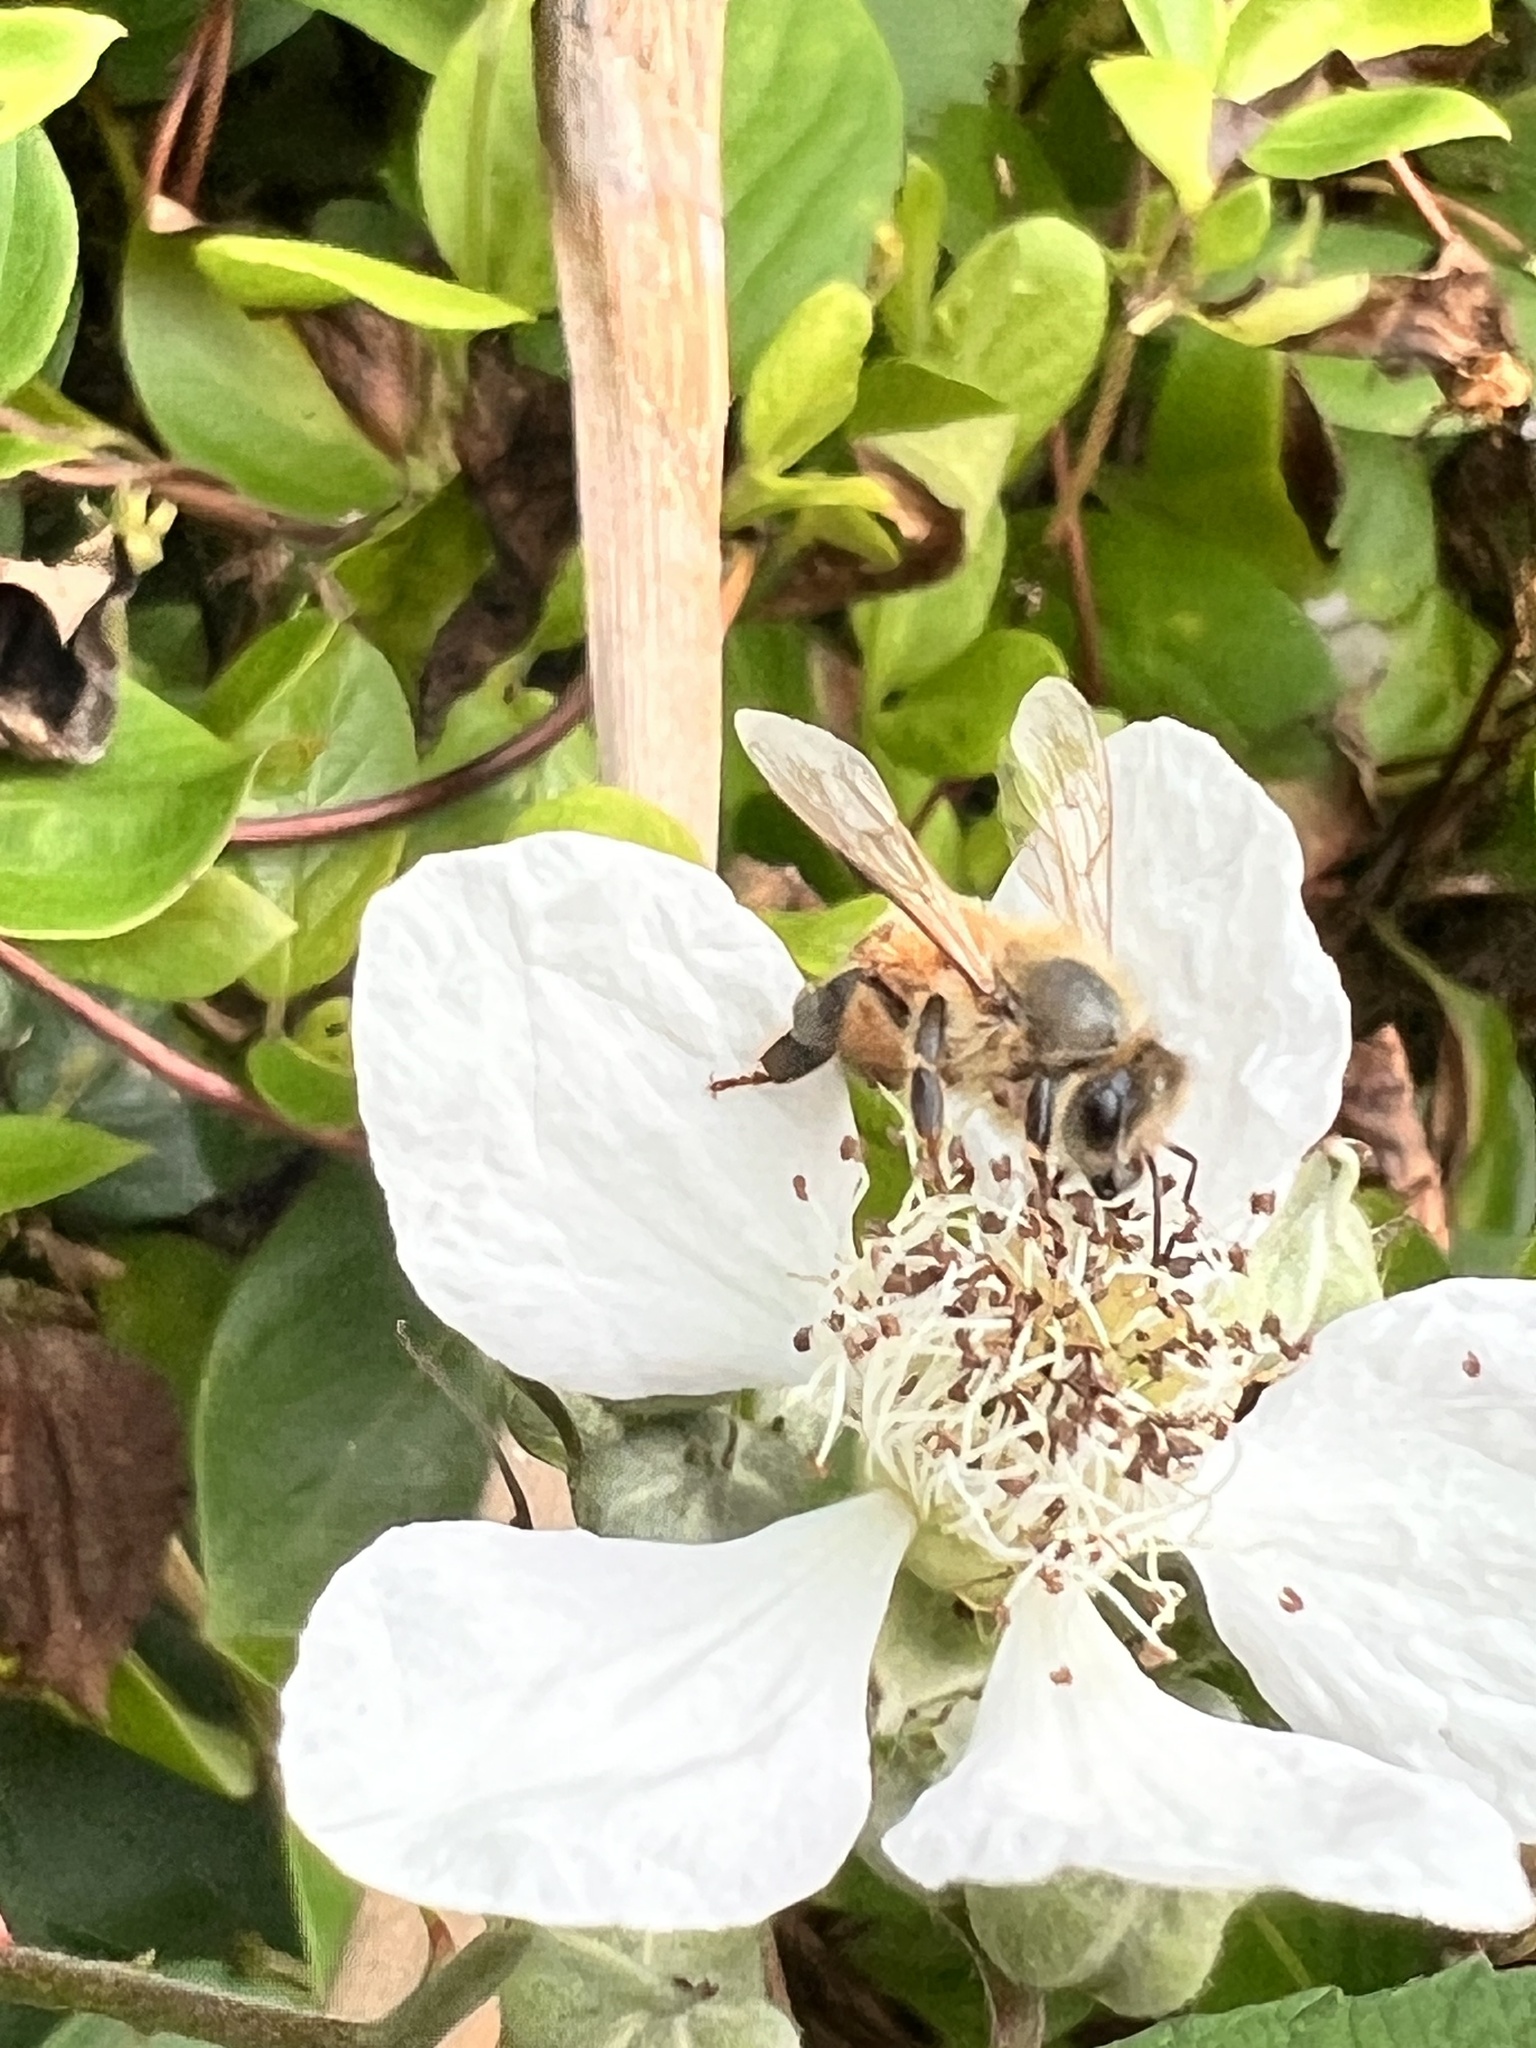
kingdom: Animalia
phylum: Arthropoda
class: Insecta
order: Hymenoptera
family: Apidae
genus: Apis
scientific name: Apis mellifera
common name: Honey bee
